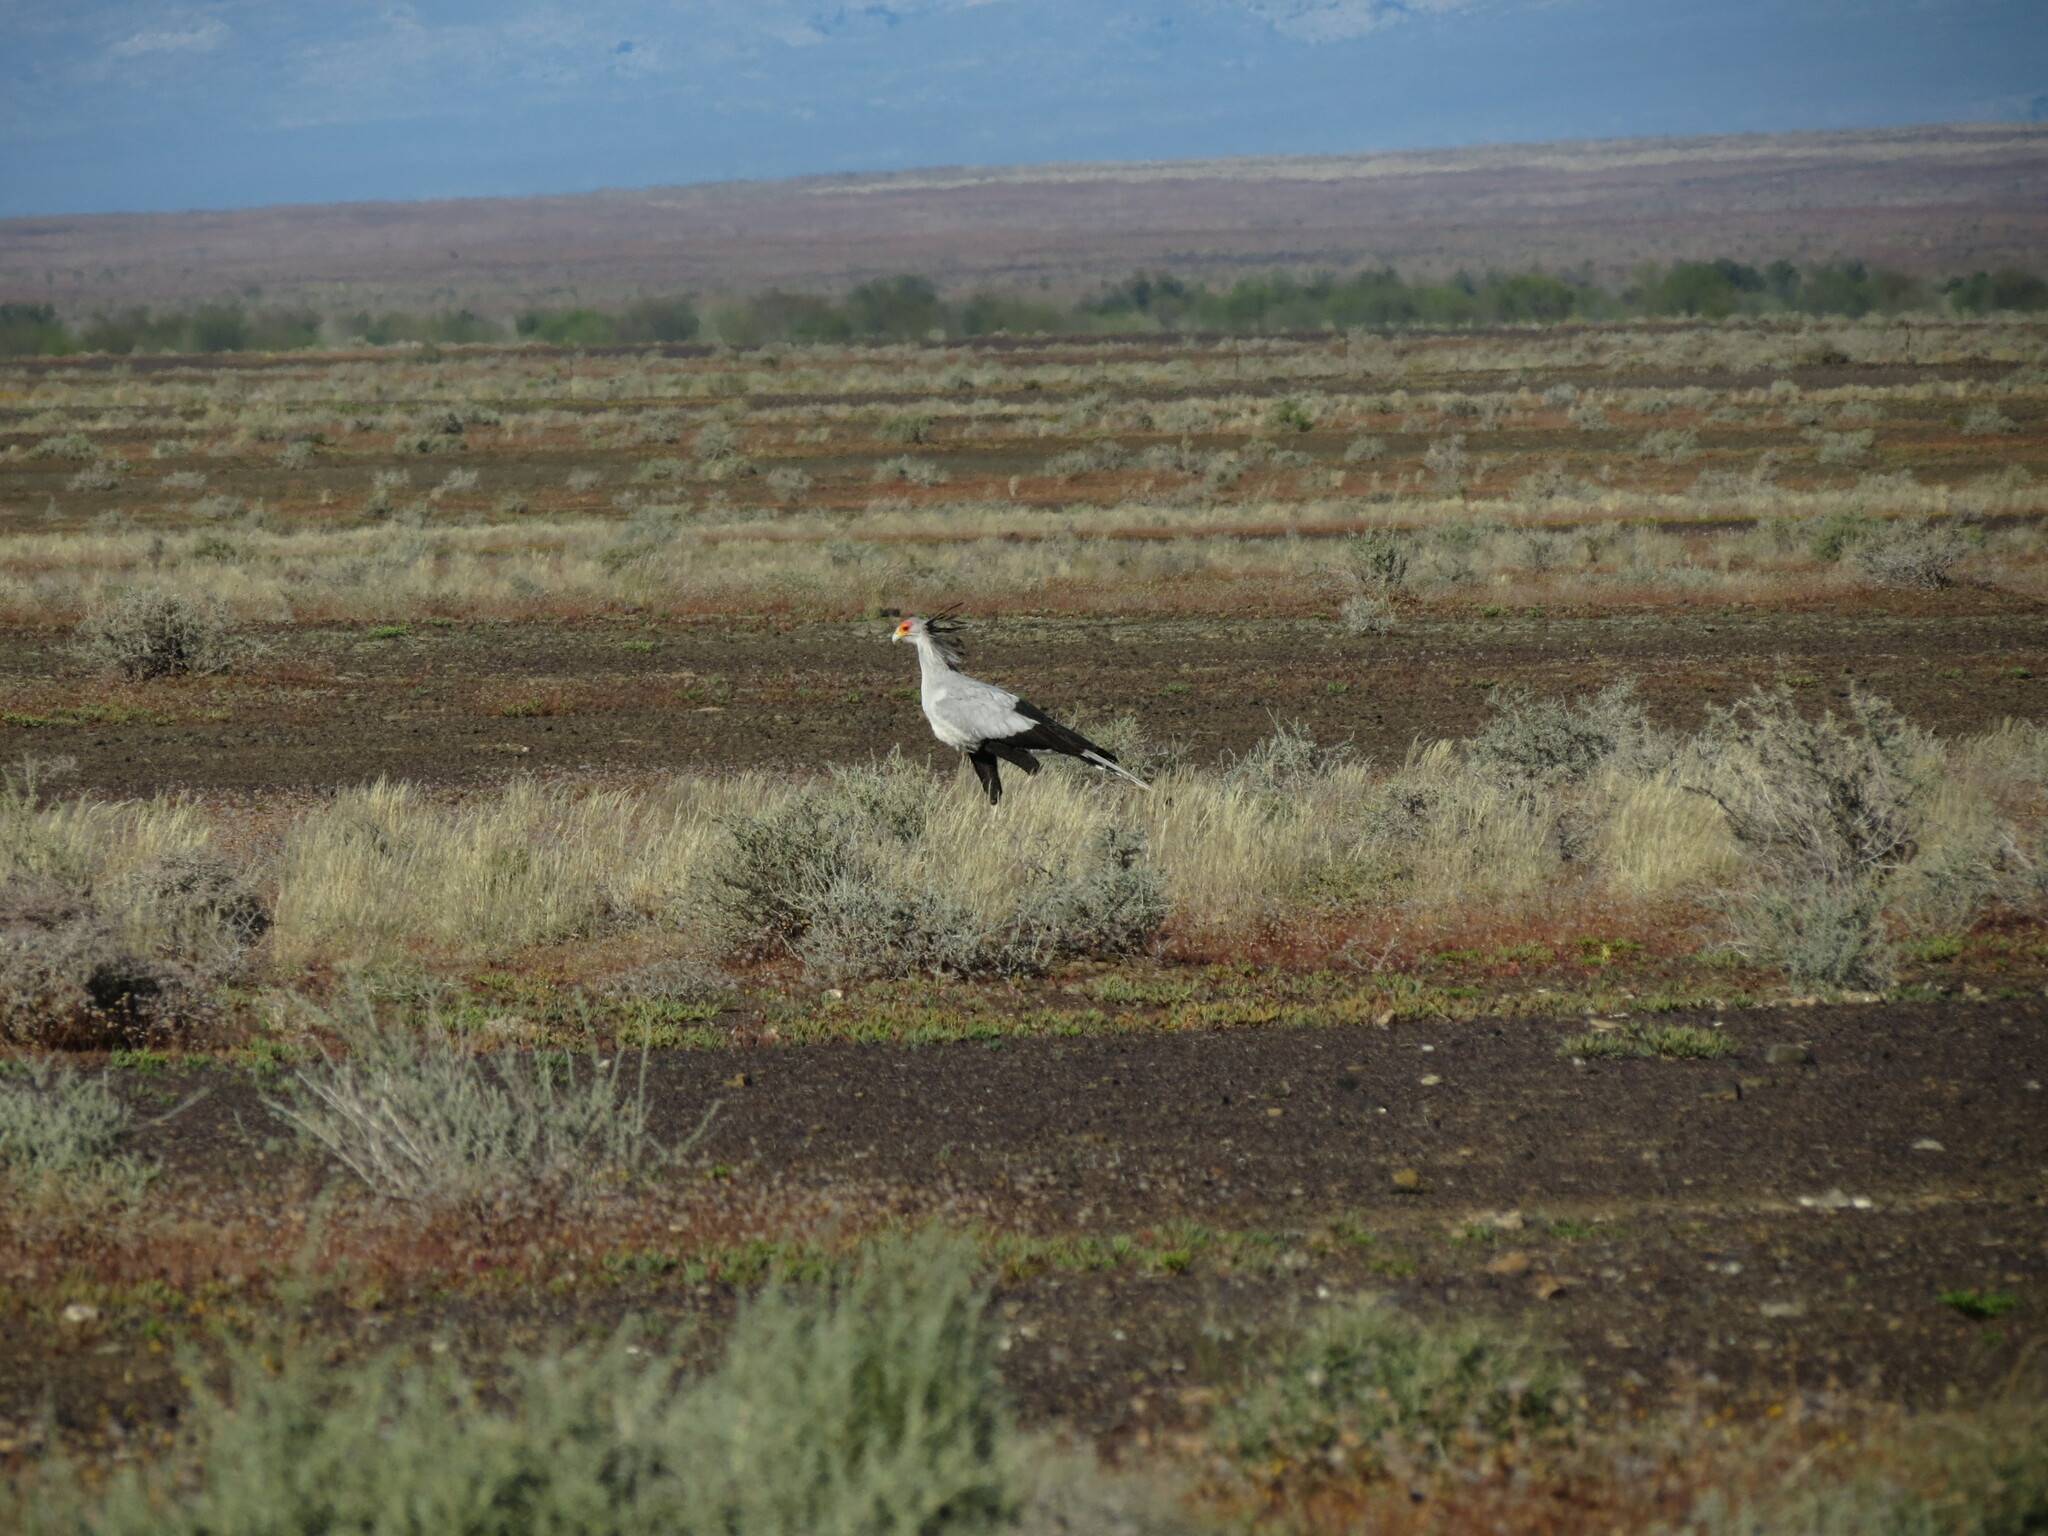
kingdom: Animalia
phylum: Chordata
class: Aves
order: Accipitriformes
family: Sagittariidae
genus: Sagittarius
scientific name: Sagittarius serpentarius
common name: Secretarybird
